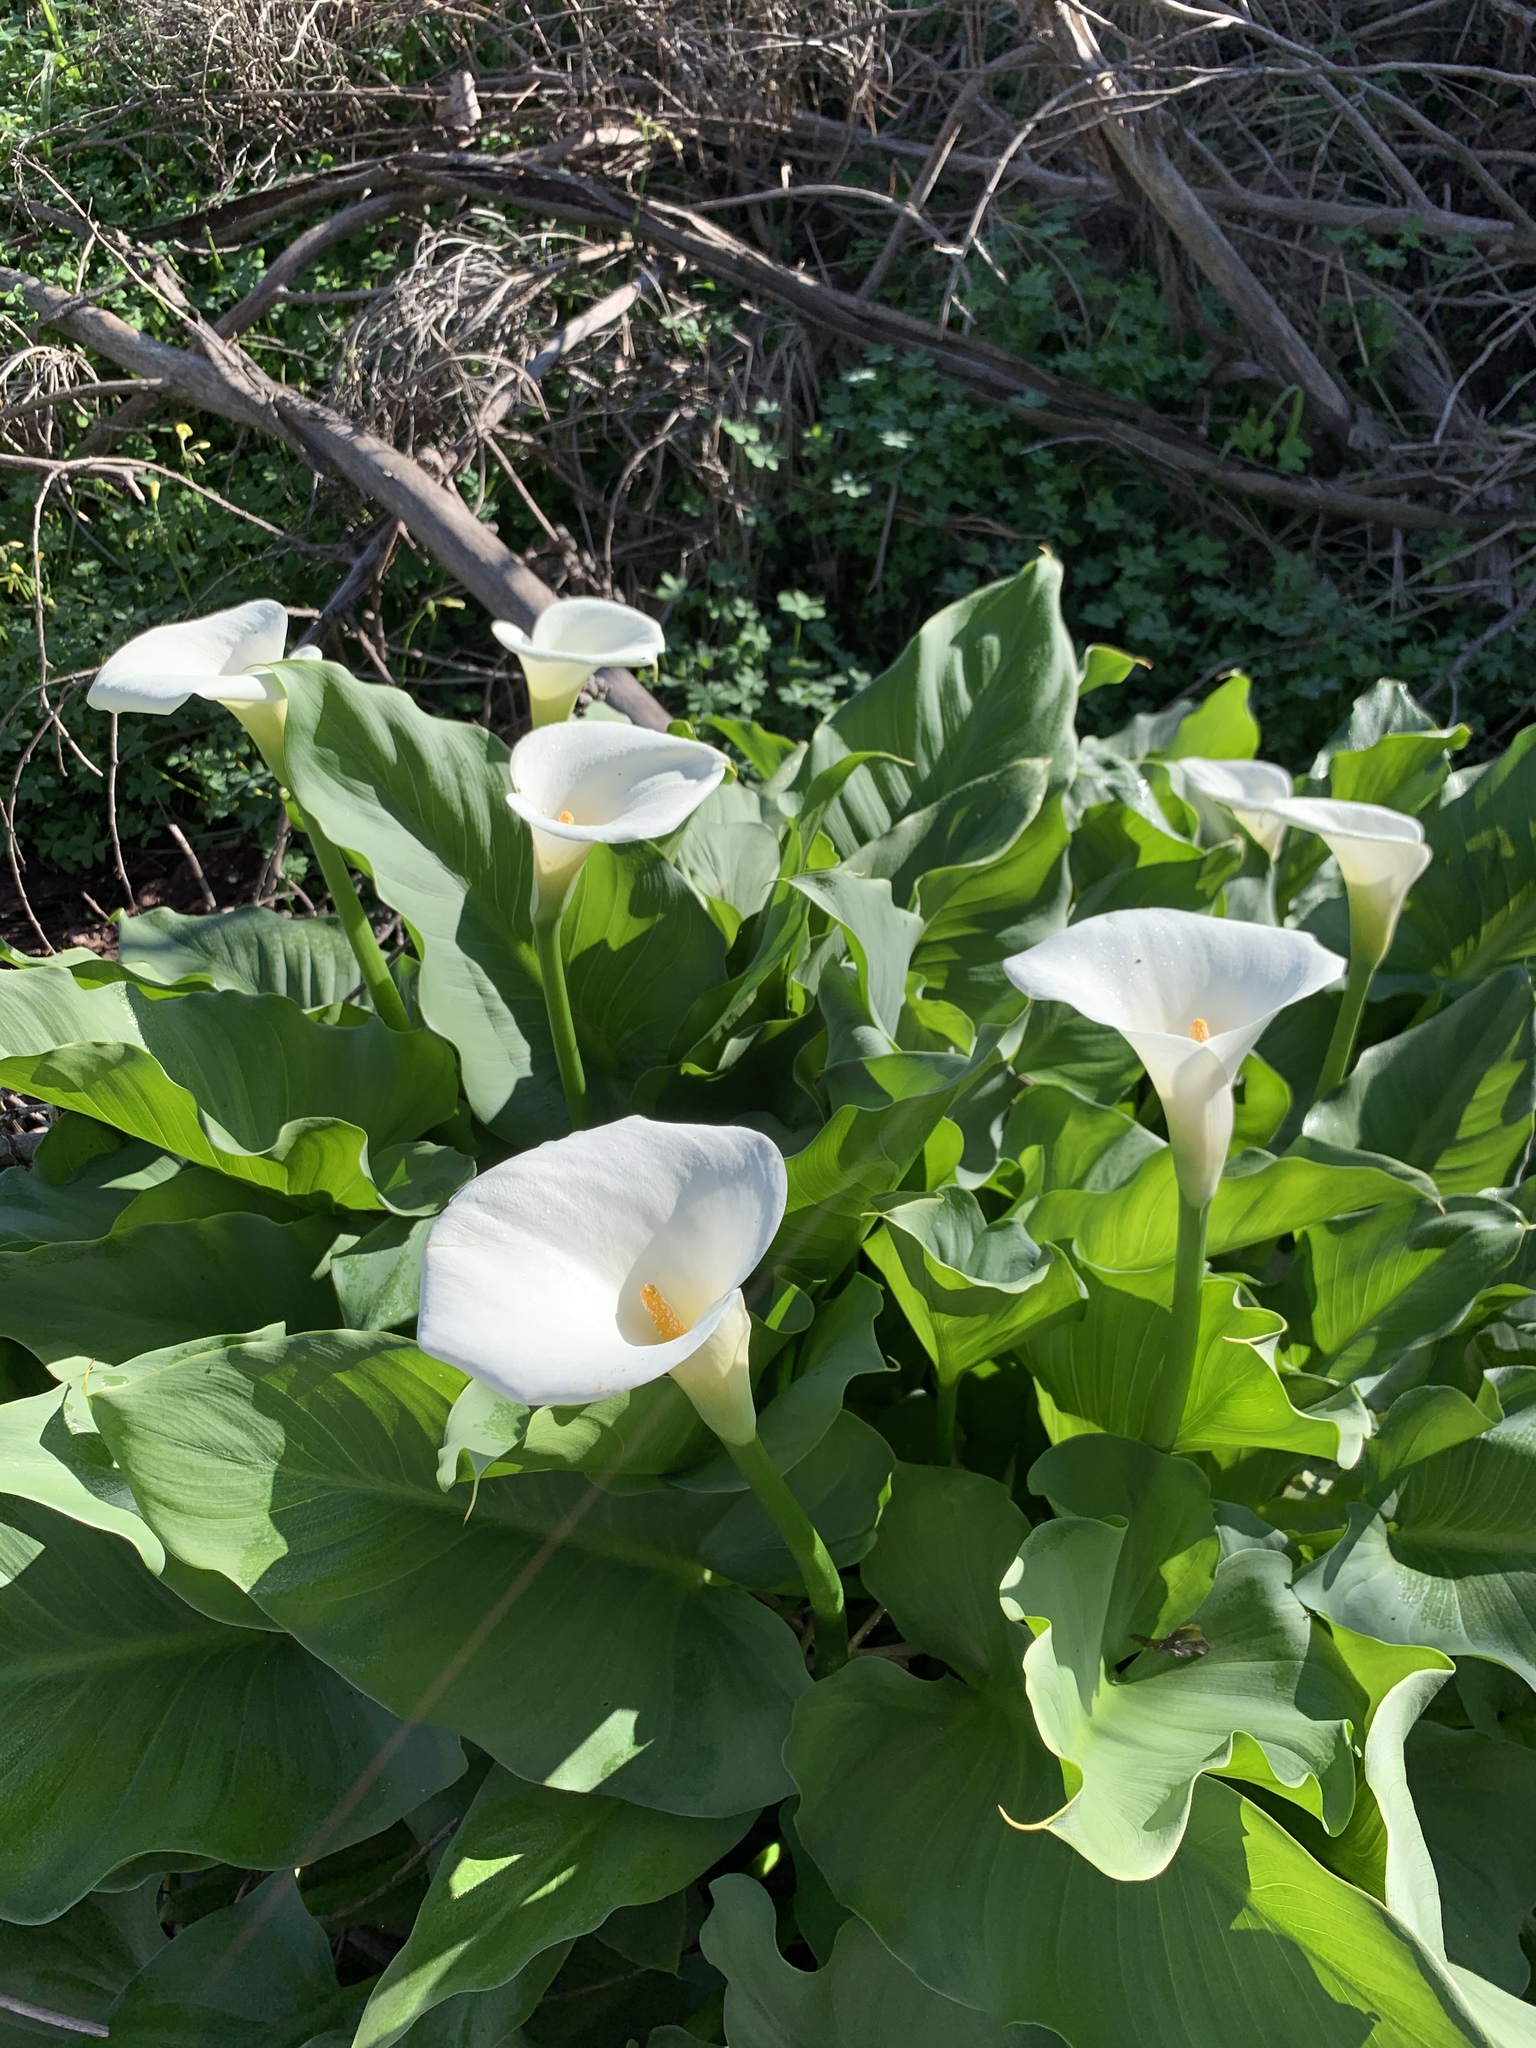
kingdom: Plantae
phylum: Tracheophyta
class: Liliopsida
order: Alismatales
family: Araceae
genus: Zantedeschia
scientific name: Zantedeschia aethiopica
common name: Altar-lily
